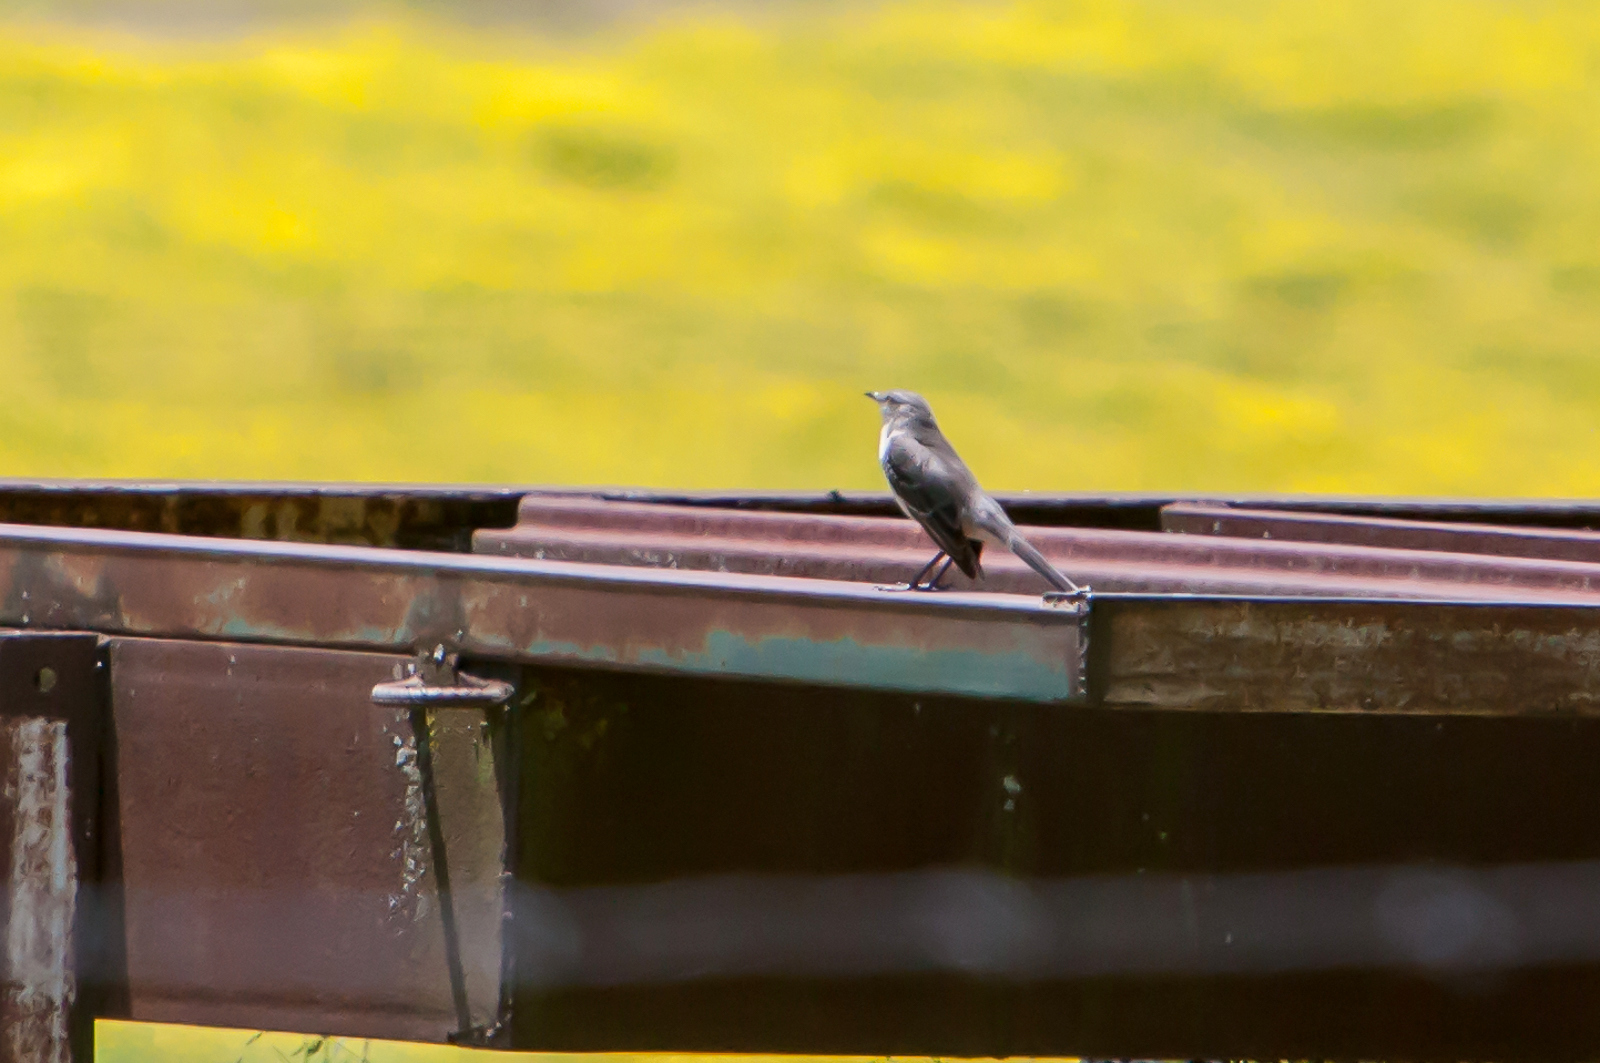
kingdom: Animalia
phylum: Chordata
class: Aves
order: Passeriformes
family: Mimidae
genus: Mimus
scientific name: Mimus polyglottos
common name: Northern mockingbird
